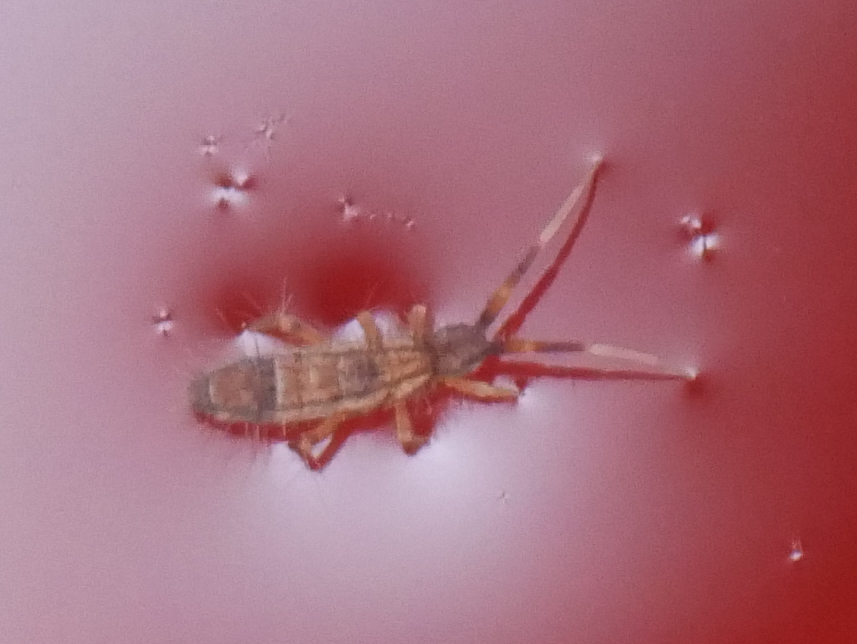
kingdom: Animalia
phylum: Arthropoda
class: Collembola
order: Entomobryomorpha
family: Entomobryidae
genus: Entomobrya
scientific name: Entomobrya nivalis
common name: Cosmopolitan springtail
